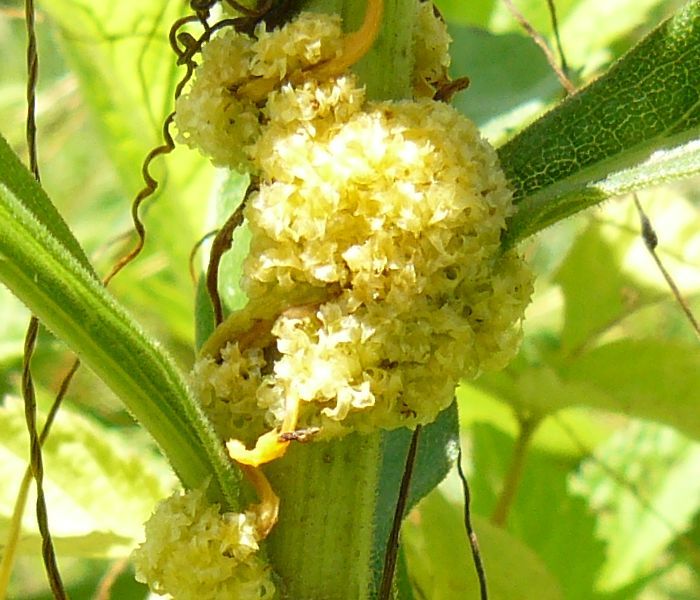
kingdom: Plantae
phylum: Tracheophyta
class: Magnoliopsida
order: Solanales
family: Convolvulaceae
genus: Cuscuta
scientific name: Cuscuta glomerata
